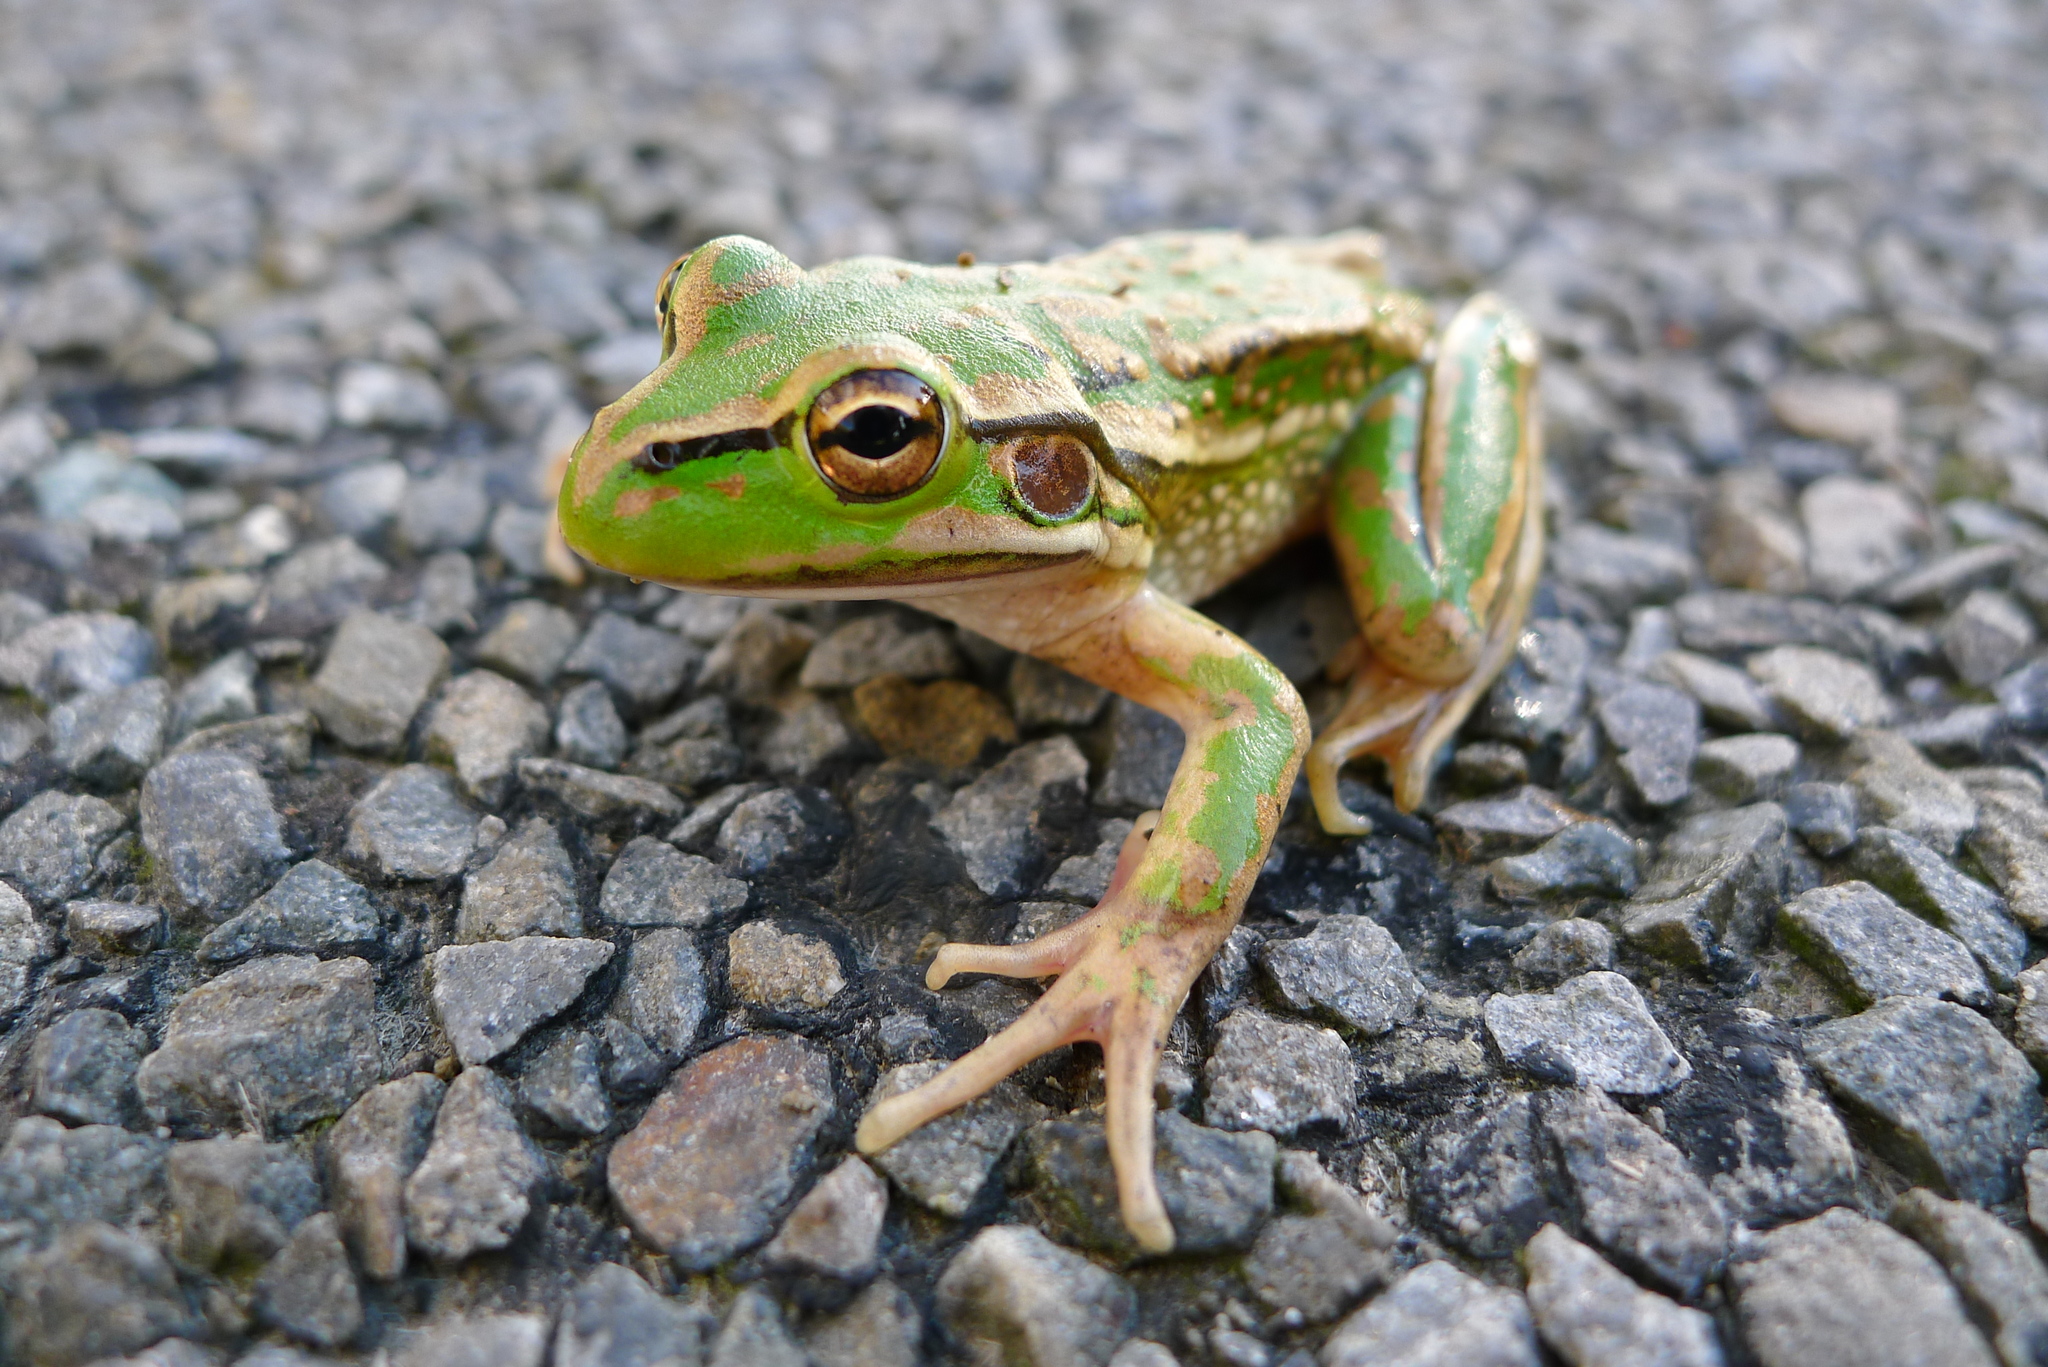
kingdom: Animalia
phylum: Chordata
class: Amphibia
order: Anura
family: Pelodryadidae
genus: Ranoidea
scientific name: Ranoidea raniformis
